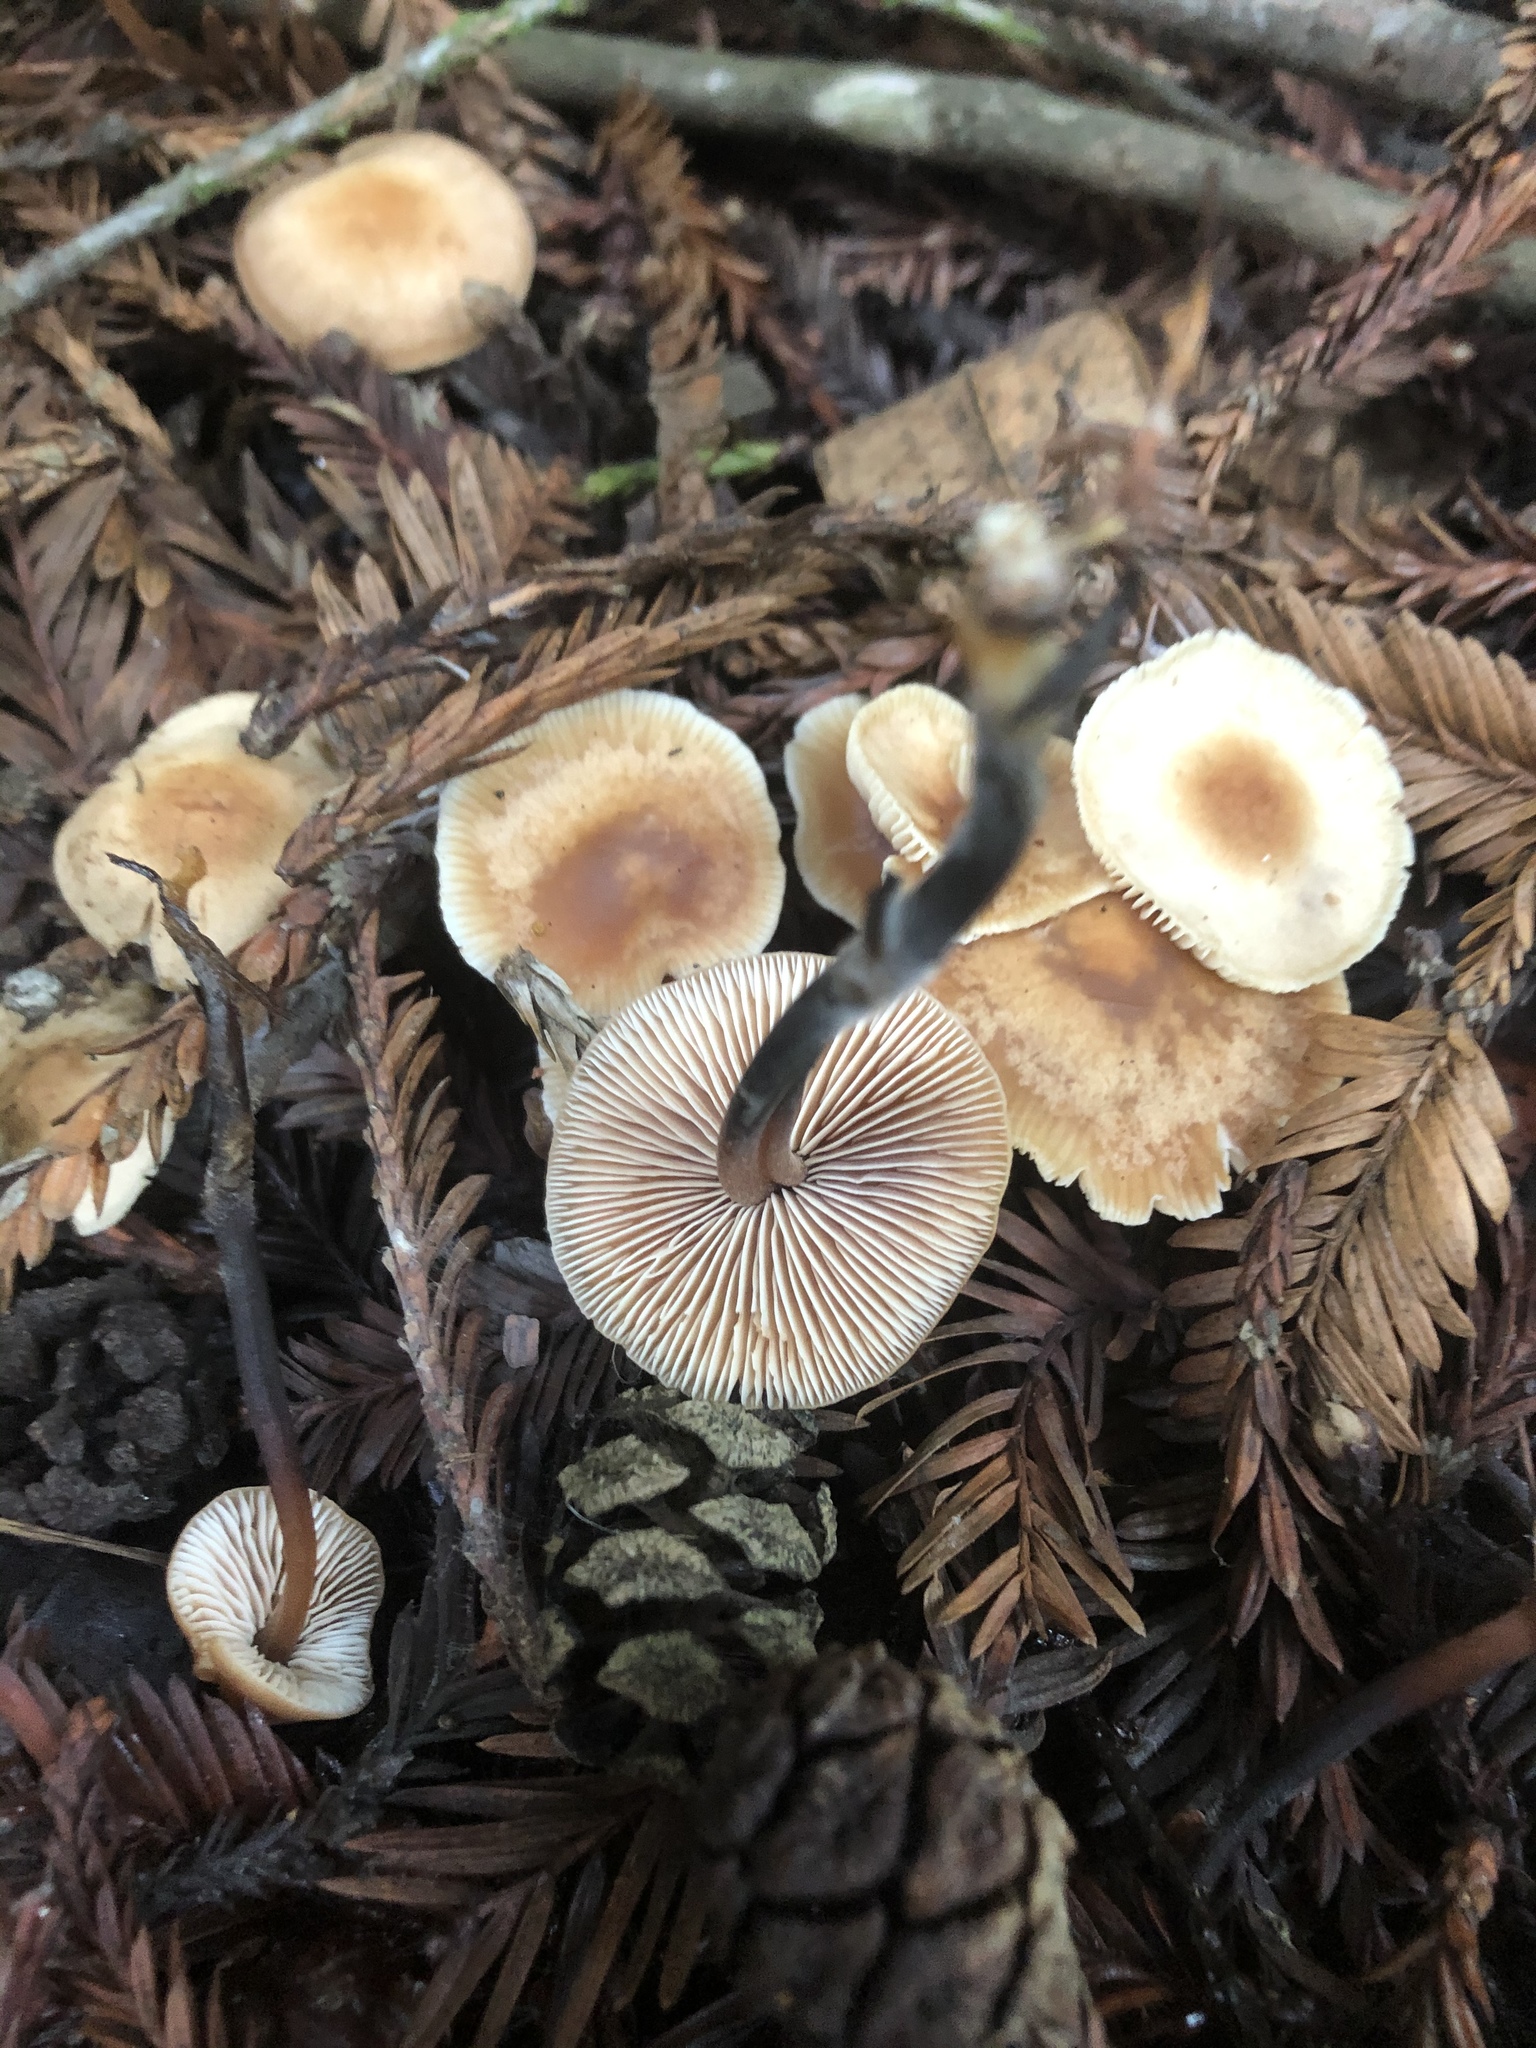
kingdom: Fungi
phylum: Basidiomycota
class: Agaricomycetes
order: Agaricales
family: Omphalotaceae
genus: Gymnopus
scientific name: Gymnopus brassicolens
